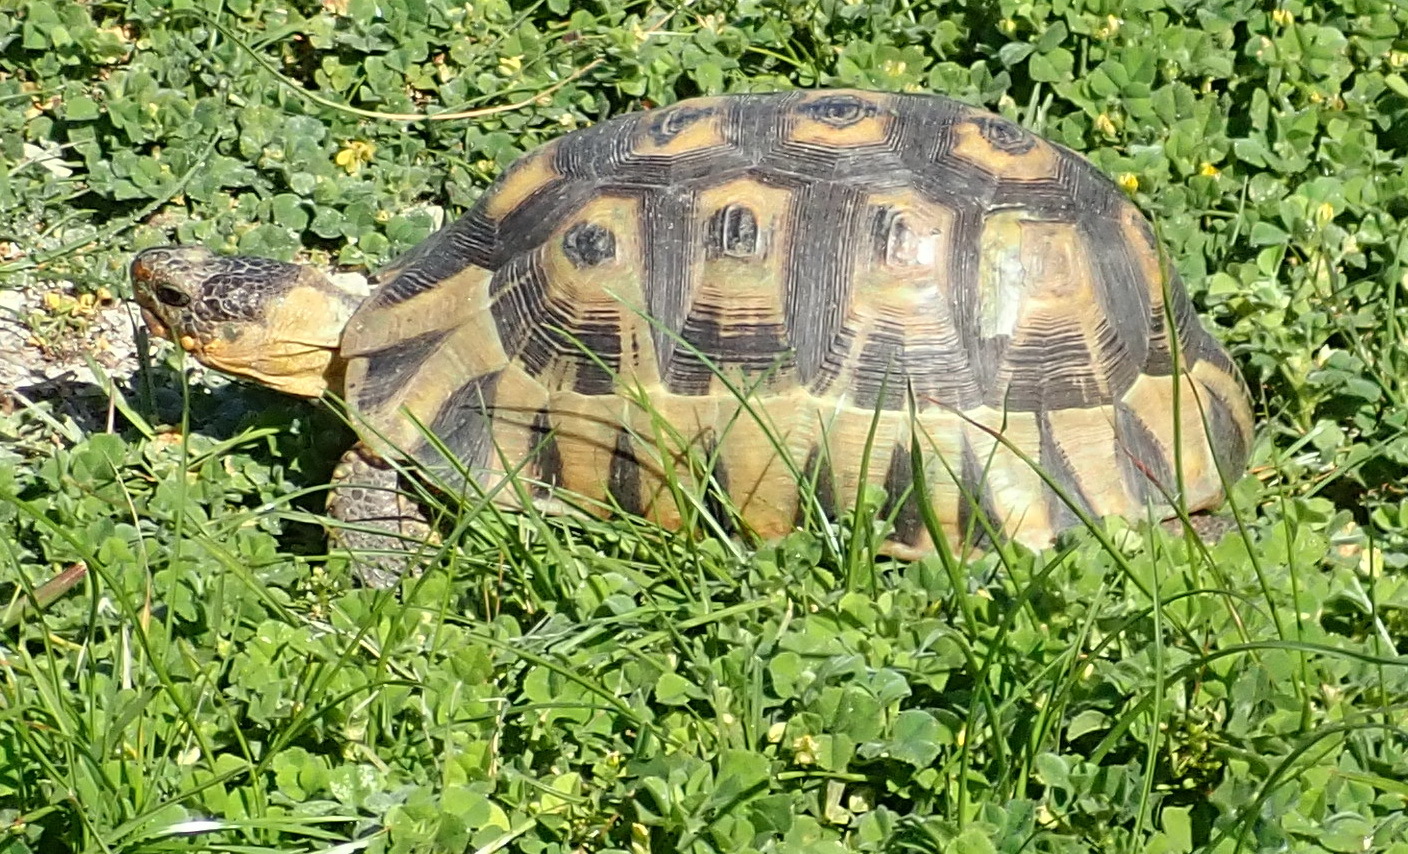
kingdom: Animalia
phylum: Chordata
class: Testudines
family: Testudinidae
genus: Chersina
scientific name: Chersina angulata
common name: South african bowsprit tortoise
